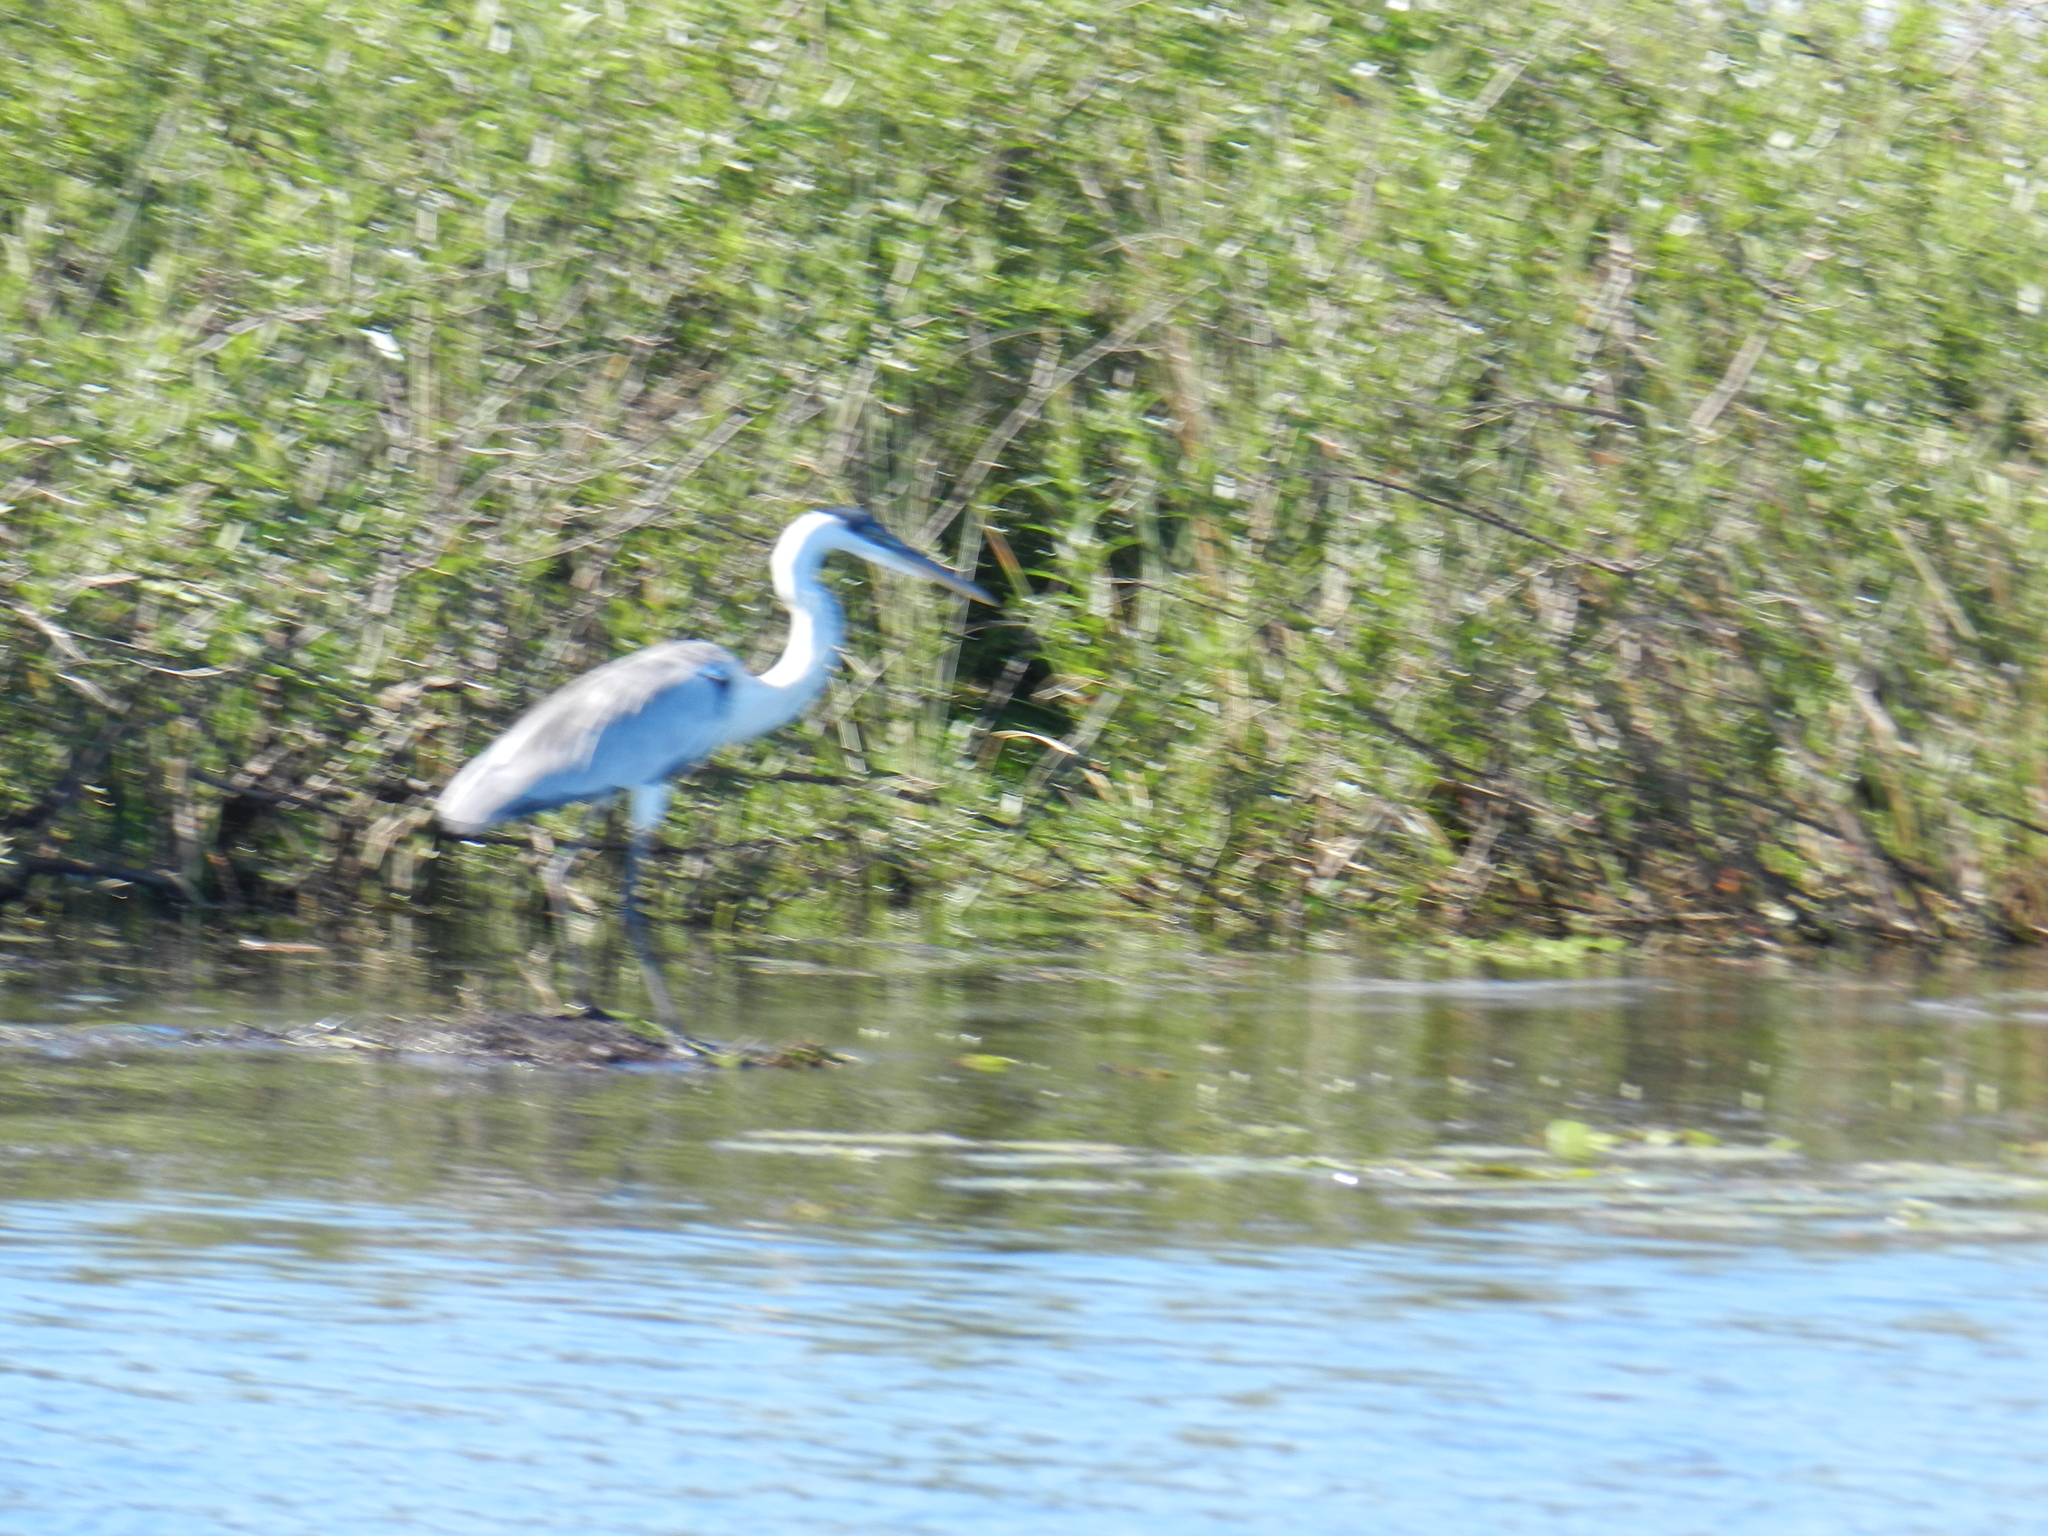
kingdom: Animalia
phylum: Chordata
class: Aves
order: Pelecaniformes
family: Ardeidae
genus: Ardea
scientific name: Ardea cocoi
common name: Cocoi heron
